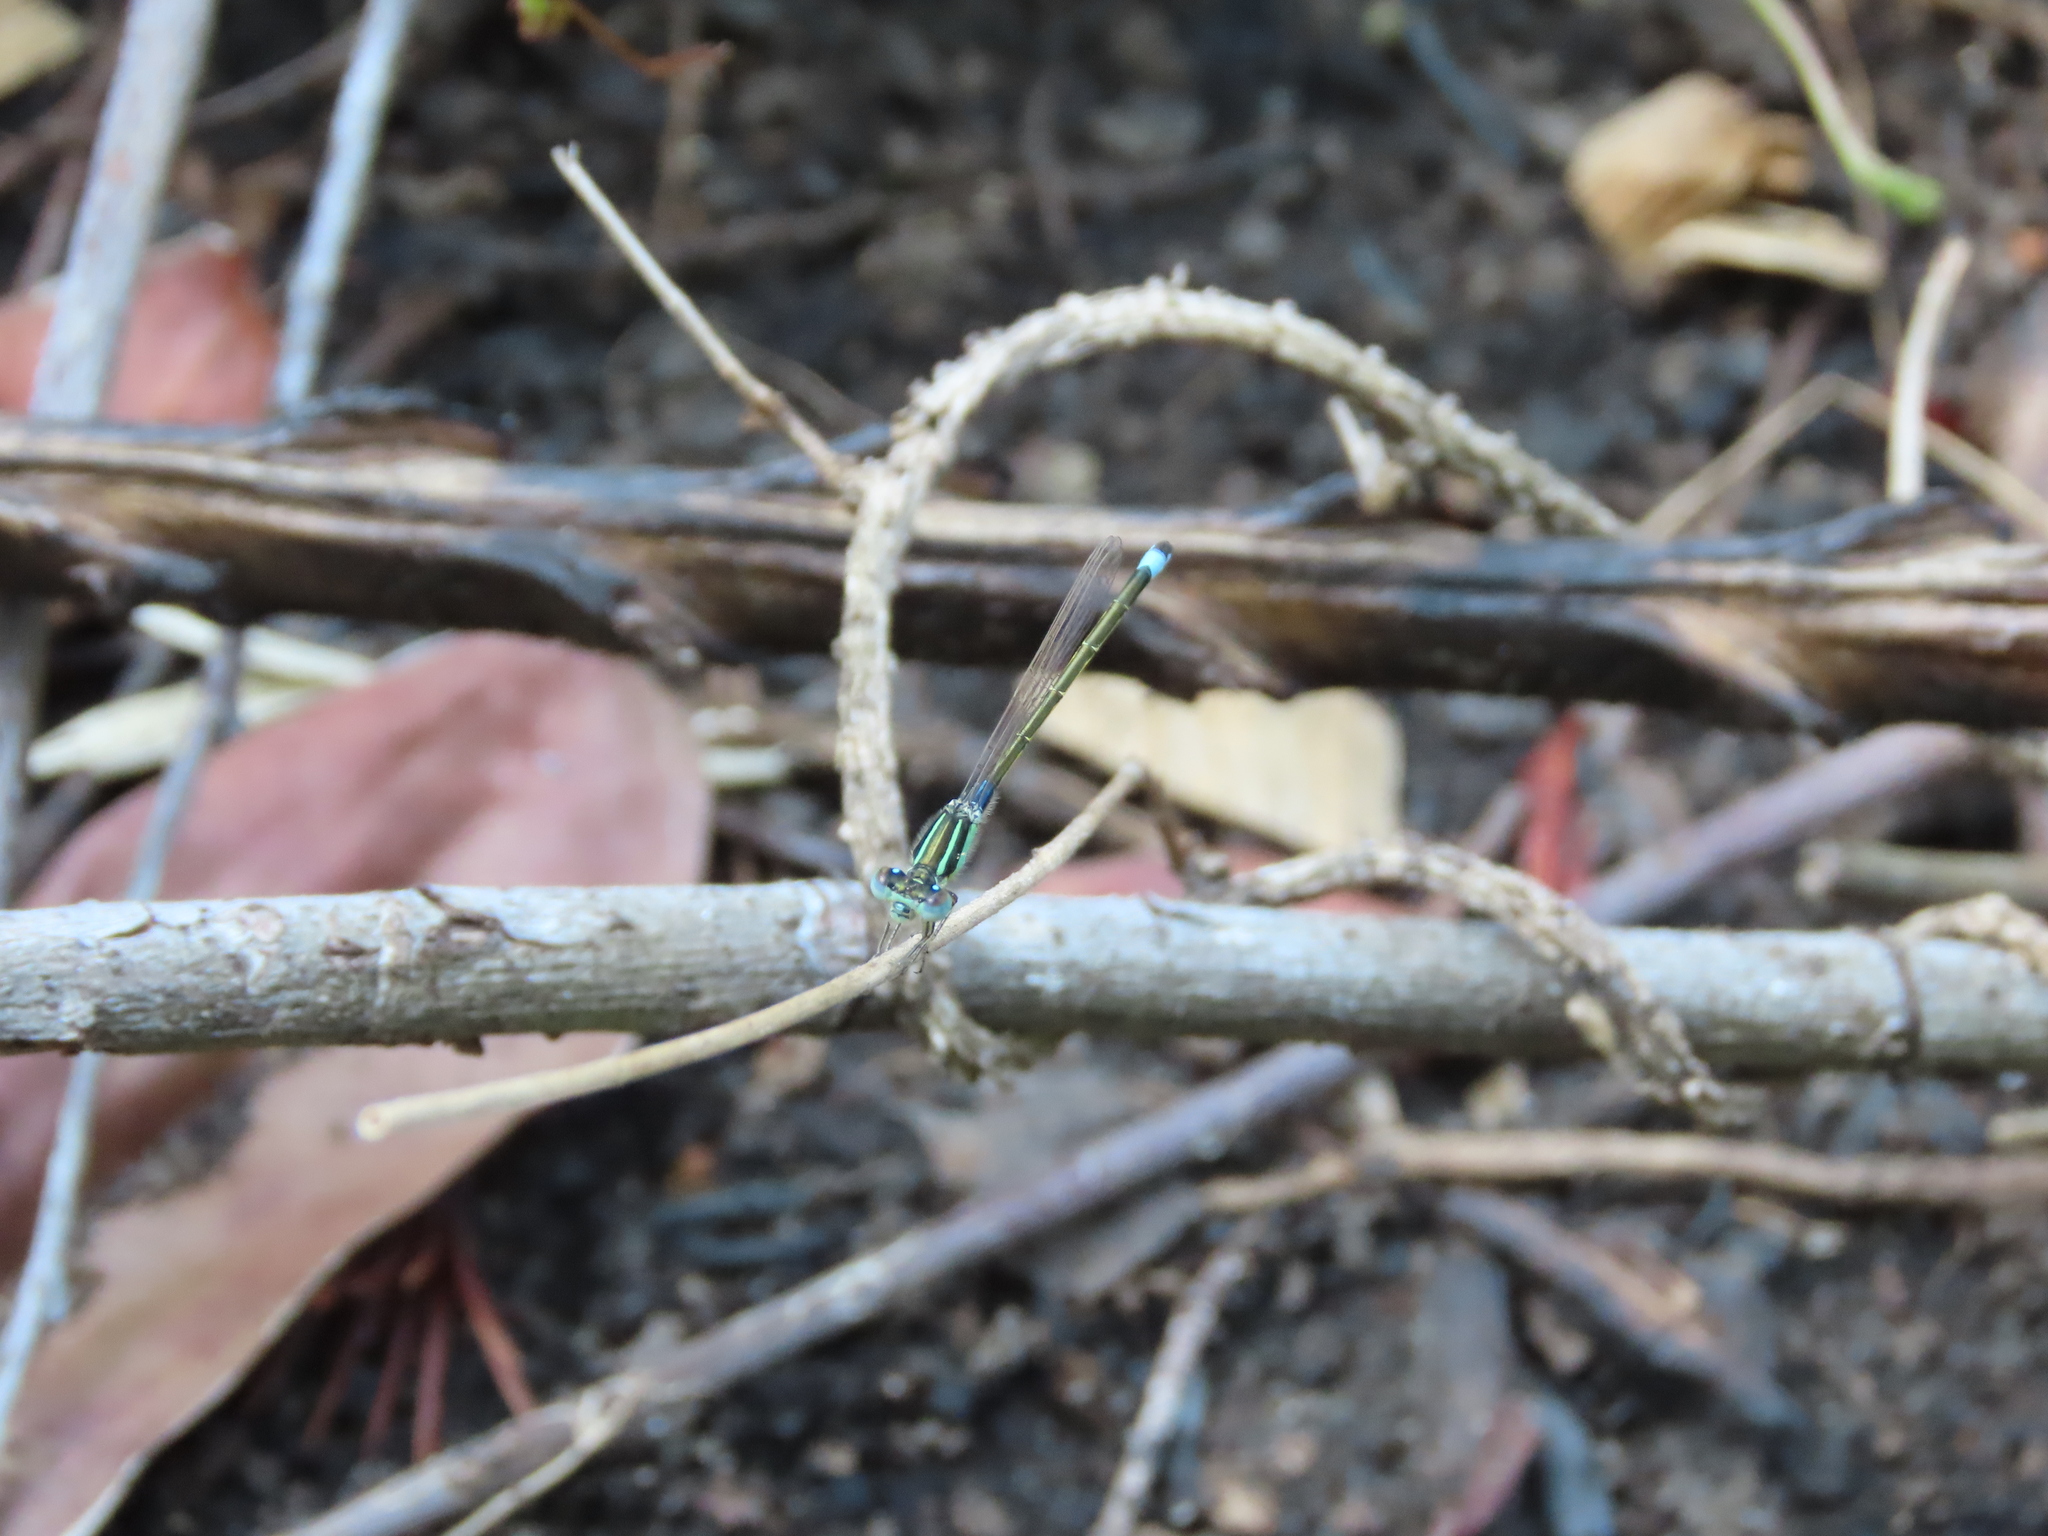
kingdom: Animalia
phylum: Arthropoda
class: Insecta
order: Odonata
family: Coenagrionidae
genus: Ischnura
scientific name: Ischnura senegalensis
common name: Tropical bluetail
